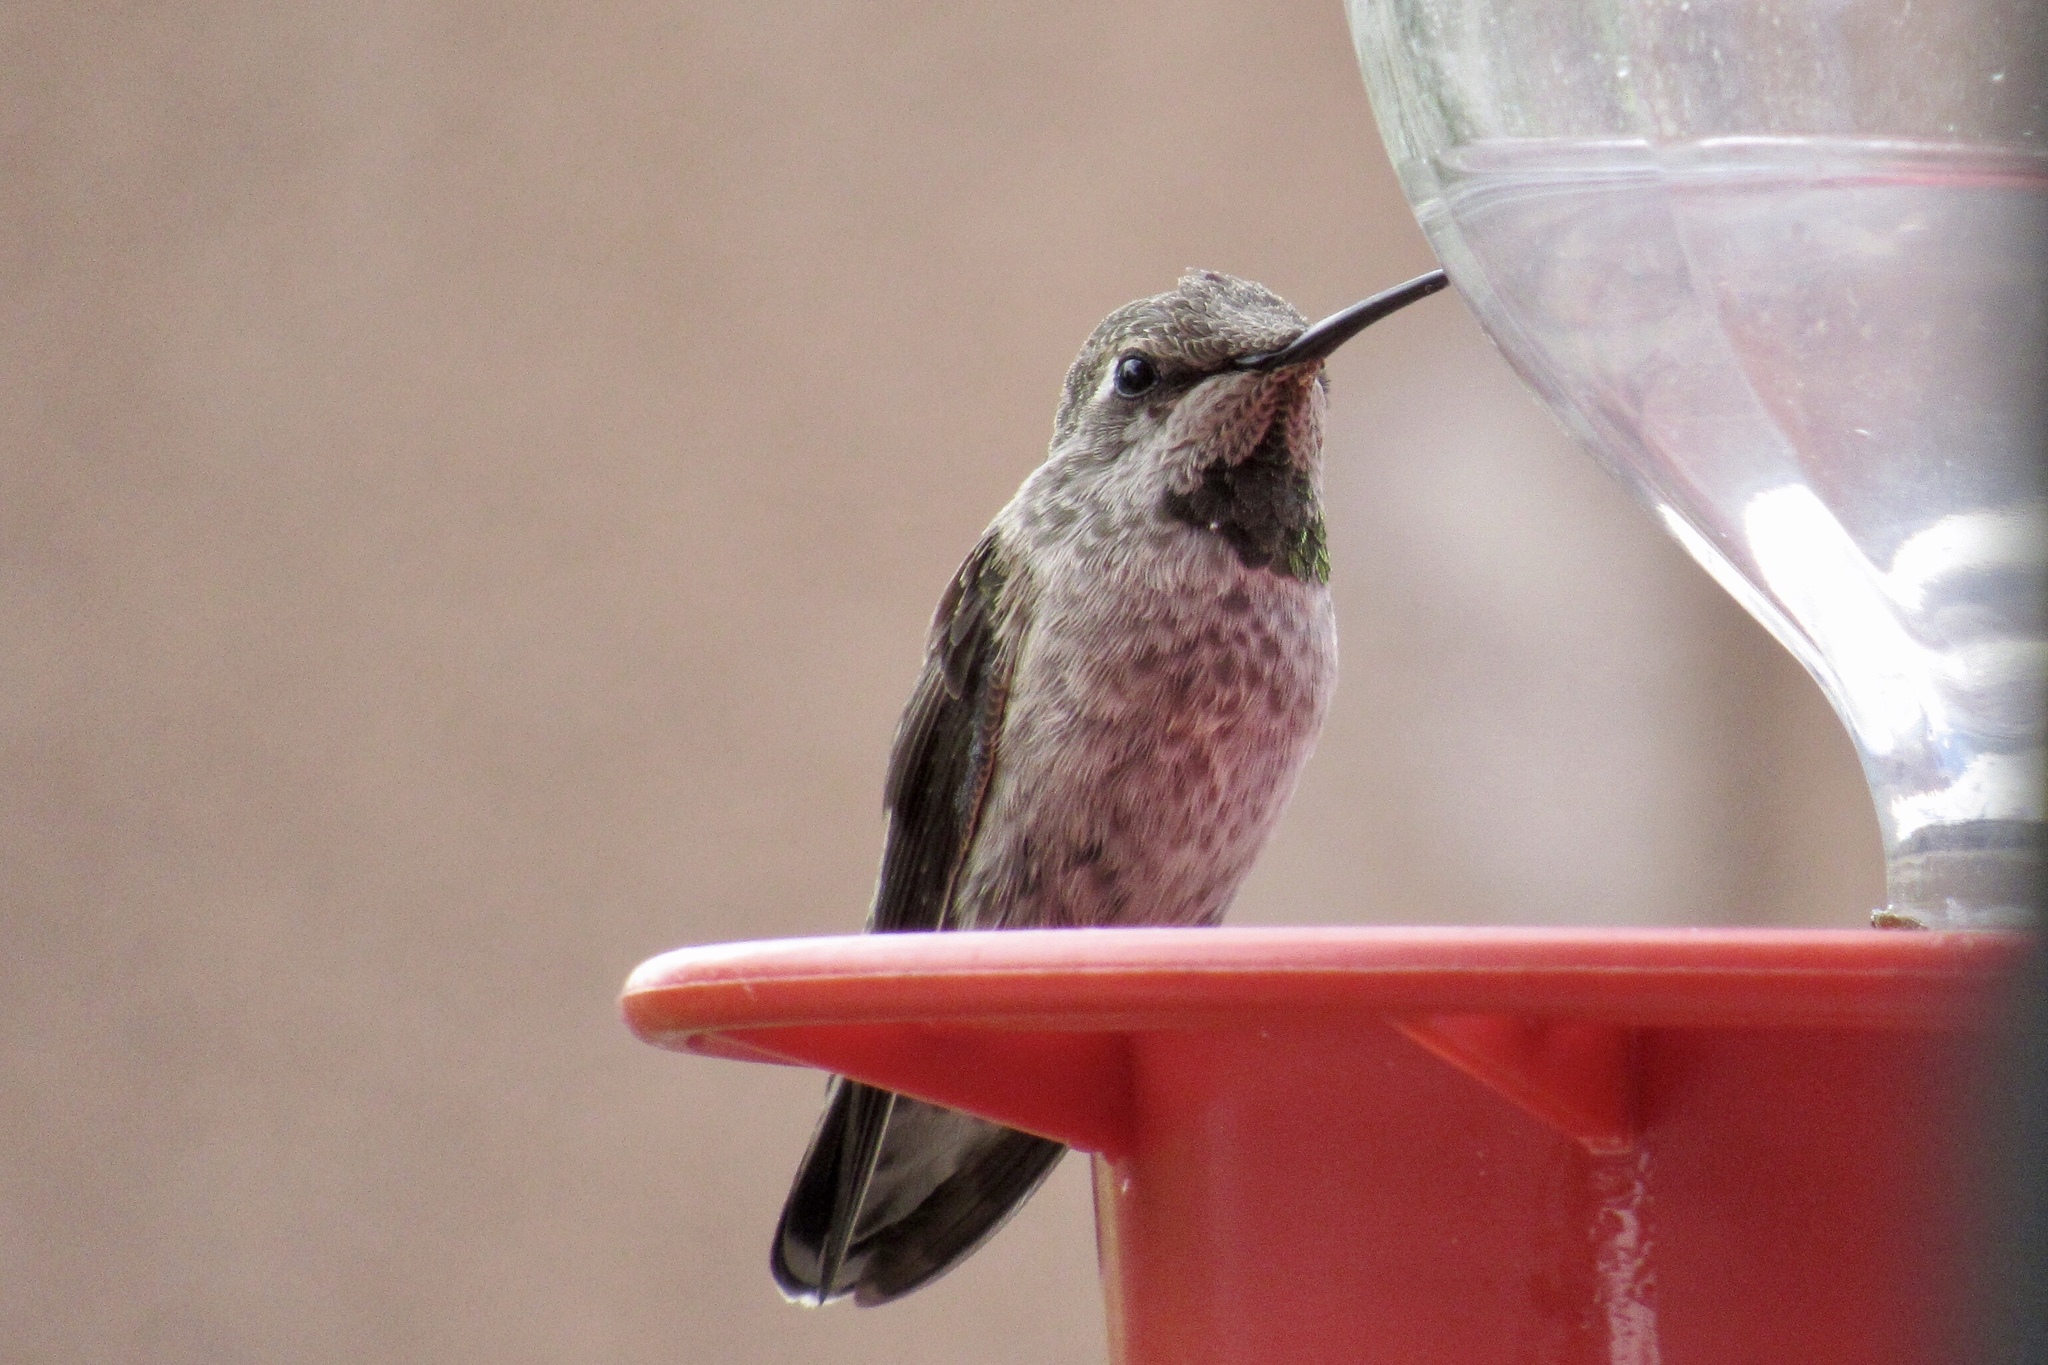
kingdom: Animalia
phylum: Chordata
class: Aves
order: Apodiformes
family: Trochilidae
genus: Calypte
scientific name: Calypte anna
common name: Anna's hummingbird
